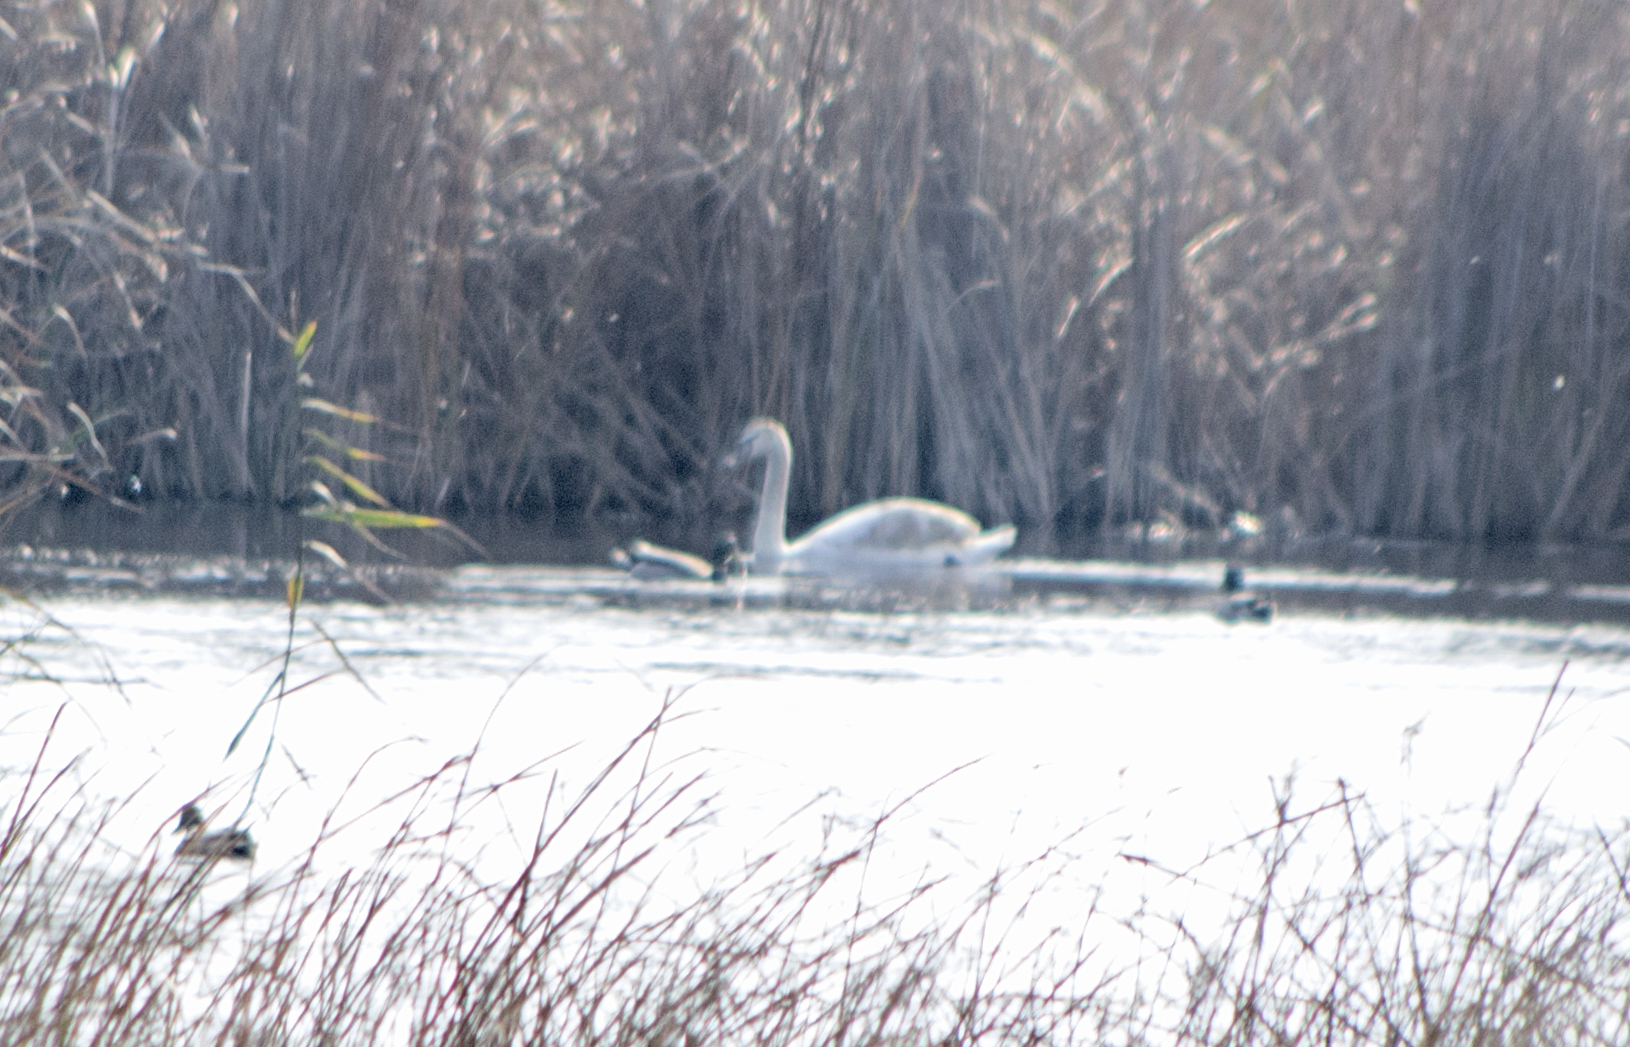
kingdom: Animalia
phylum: Chordata
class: Aves
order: Anseriformes
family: Anatidae
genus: Cygnus
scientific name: Cygnus olor
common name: Mute swan
